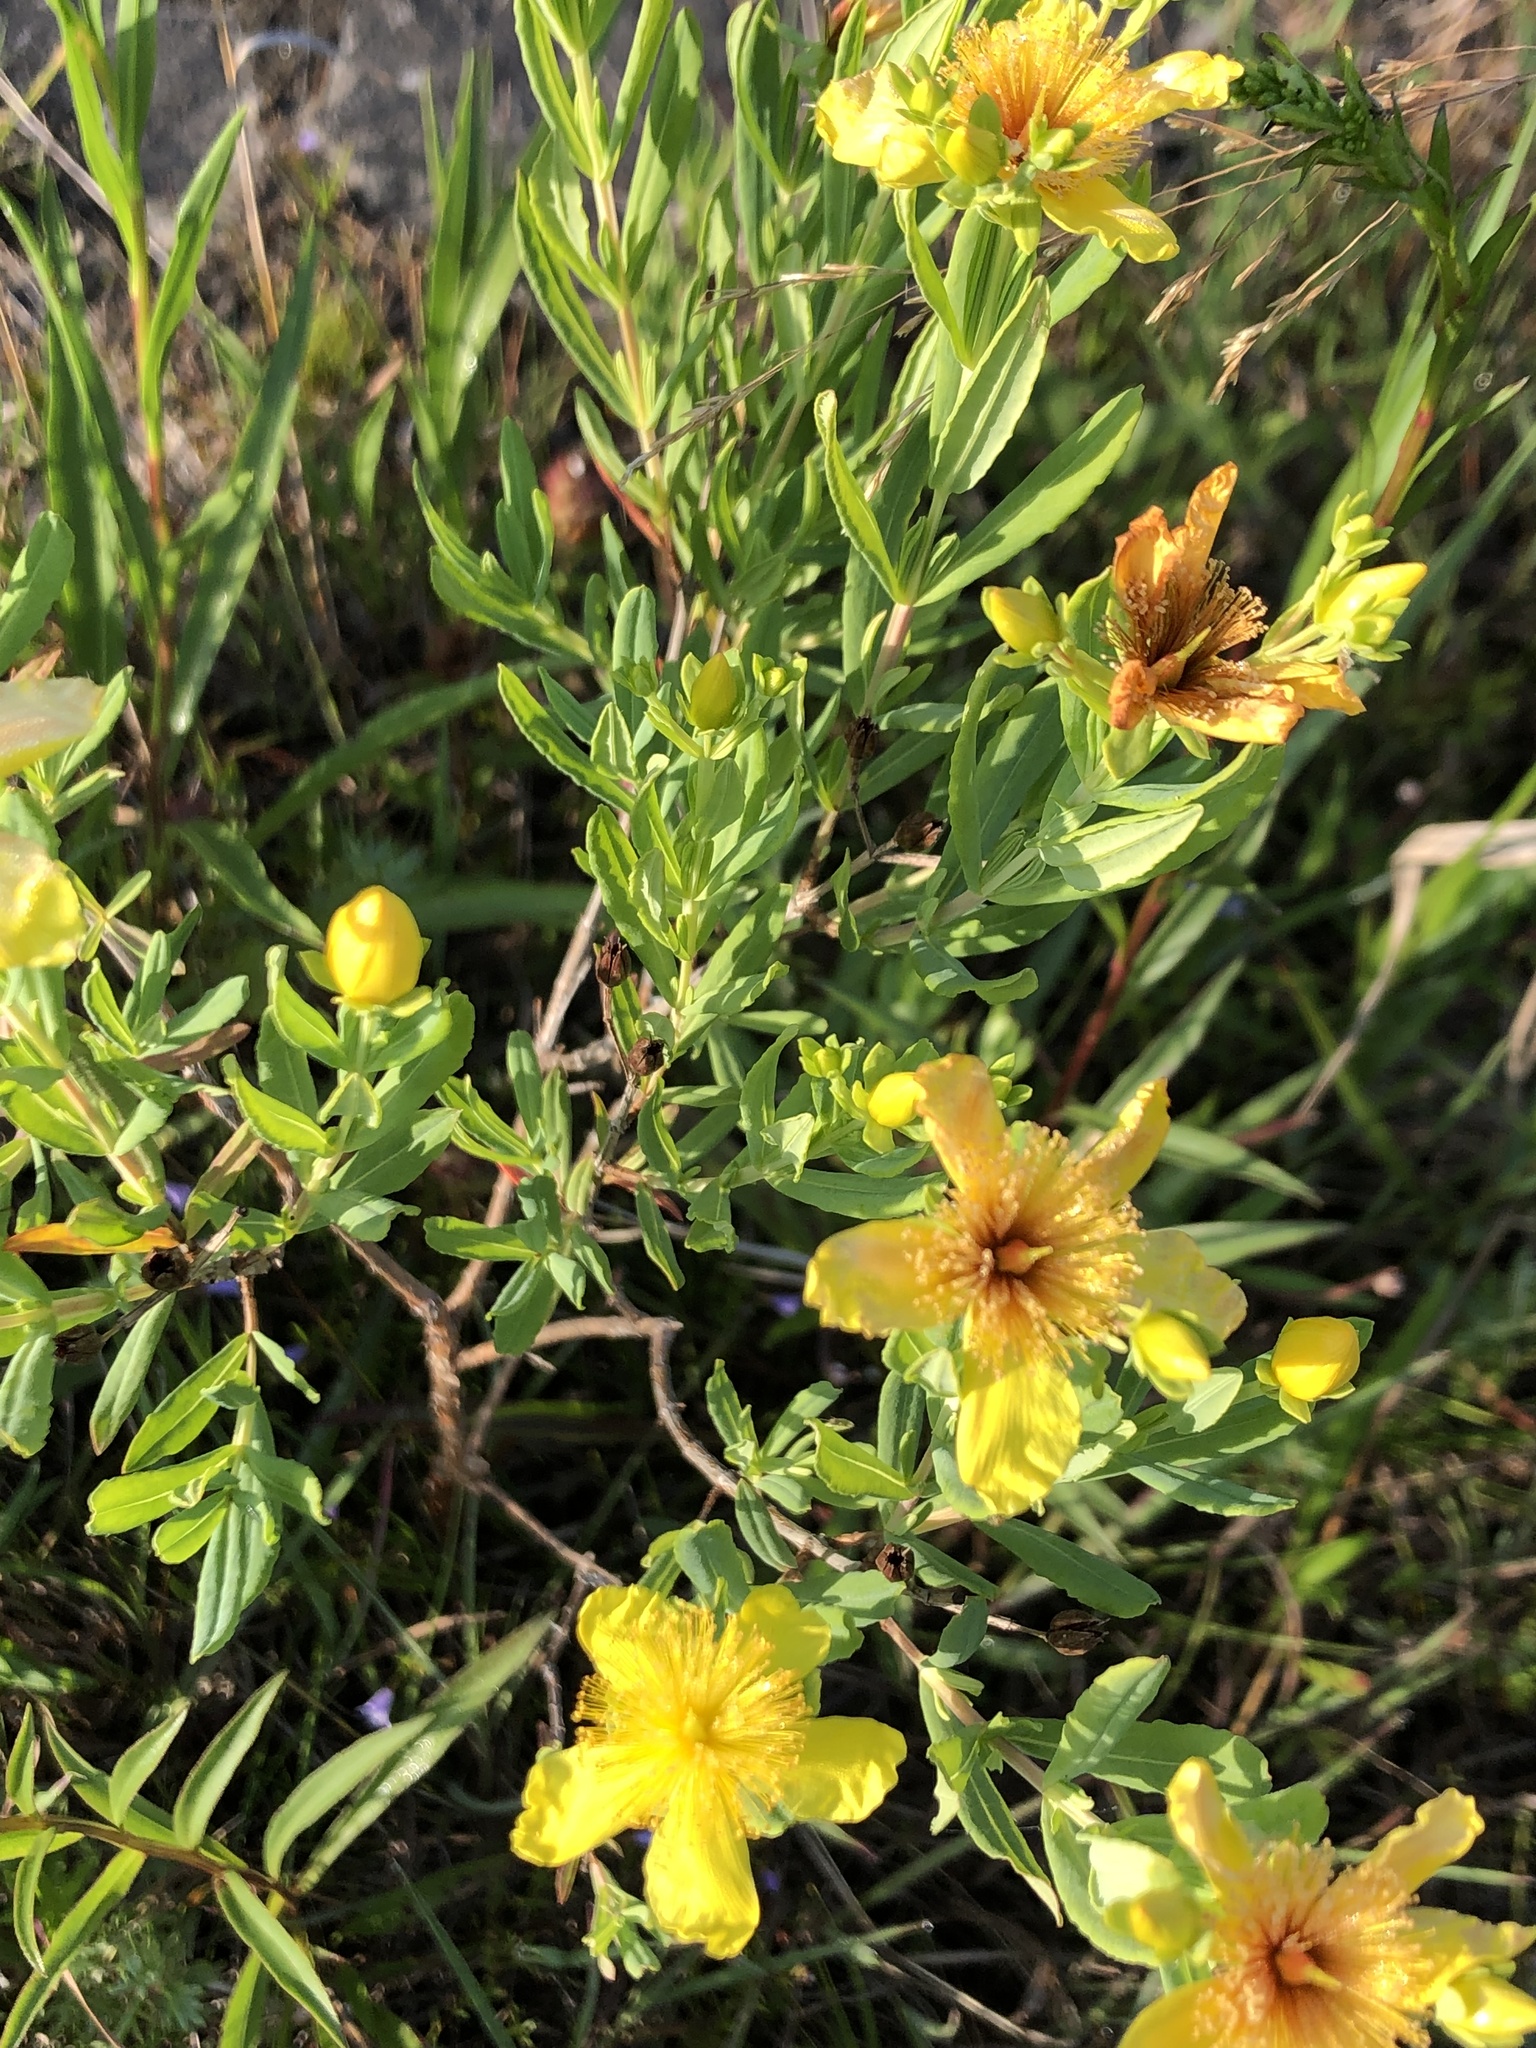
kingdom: Plantae
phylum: Tracheophyta
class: Magnoliopsida
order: Malpighiales
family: Hypericaceae
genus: Hypericum
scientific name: Hypericum kalmianum
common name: Kalm's st. john's-wort
